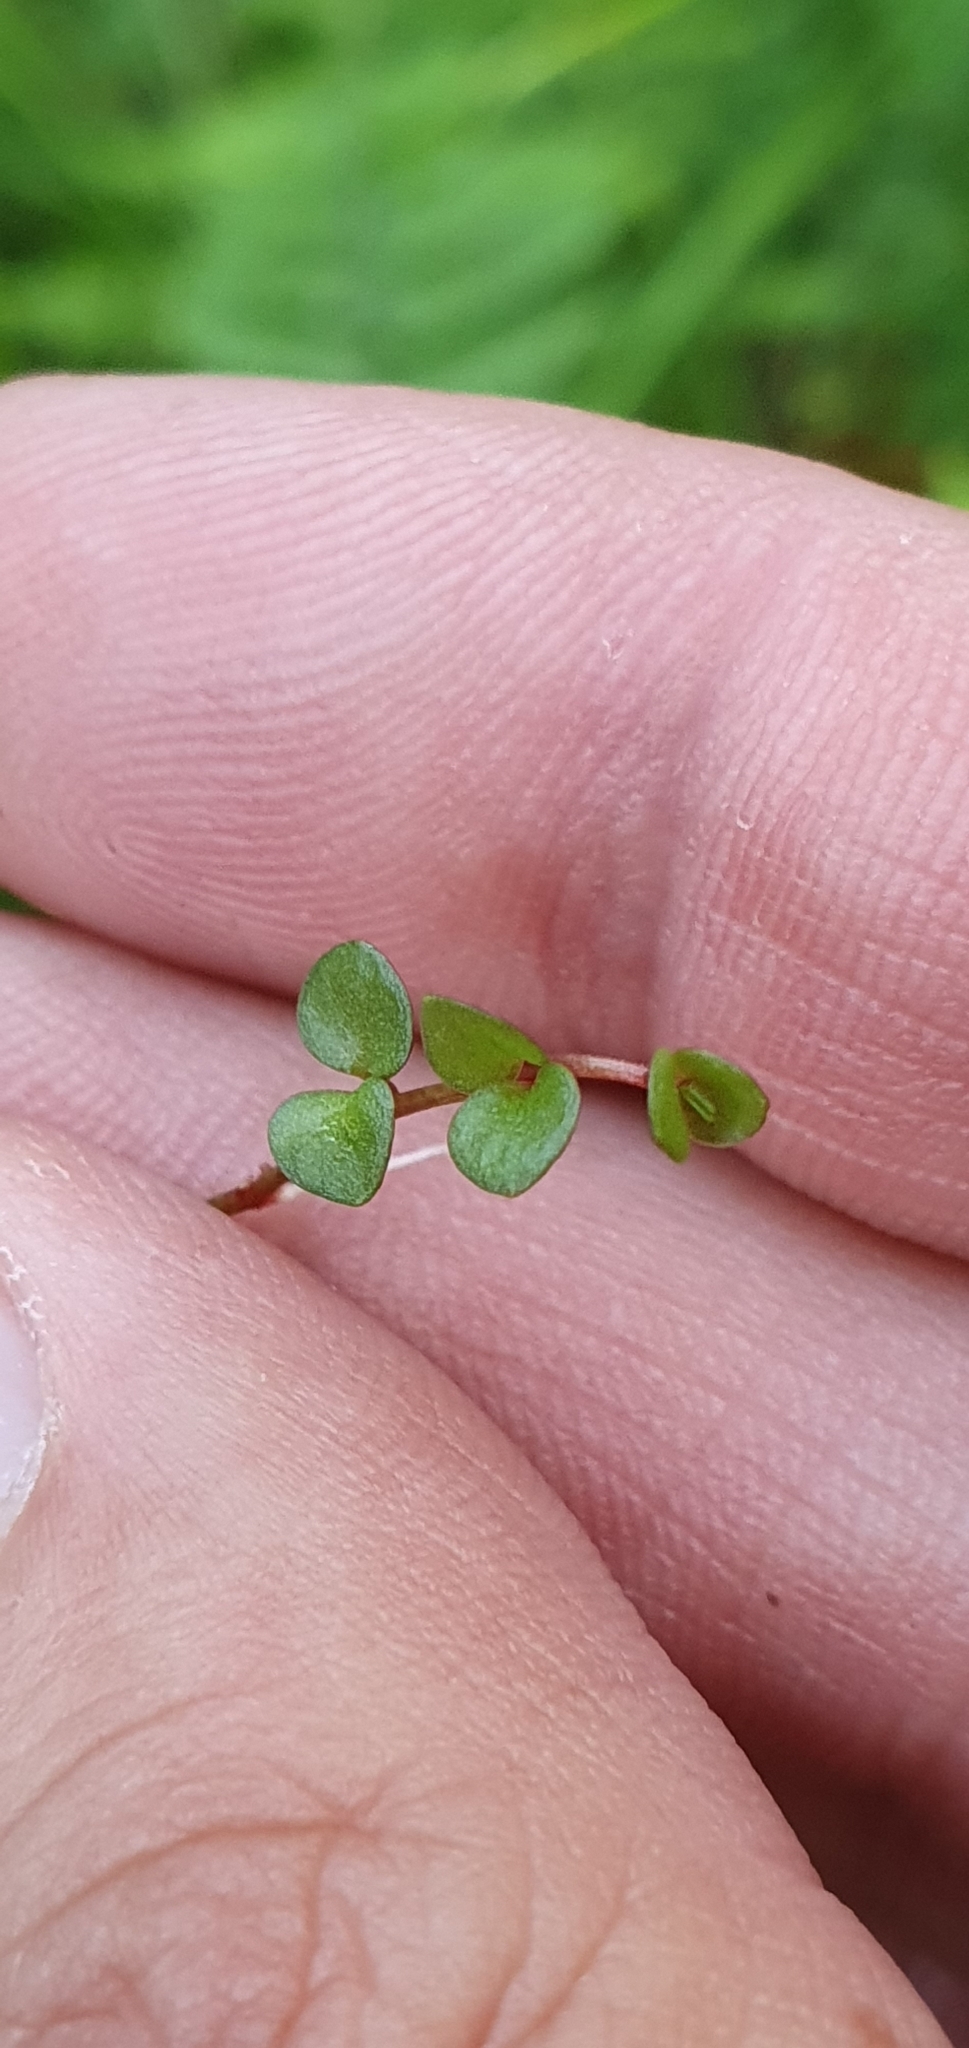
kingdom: Plantae
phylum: Tracheophyta
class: Magnoliopsida
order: Ericales
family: Primulaceae
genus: Lysimachia
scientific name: Lysimachia tenella
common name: European bog pimpernel
